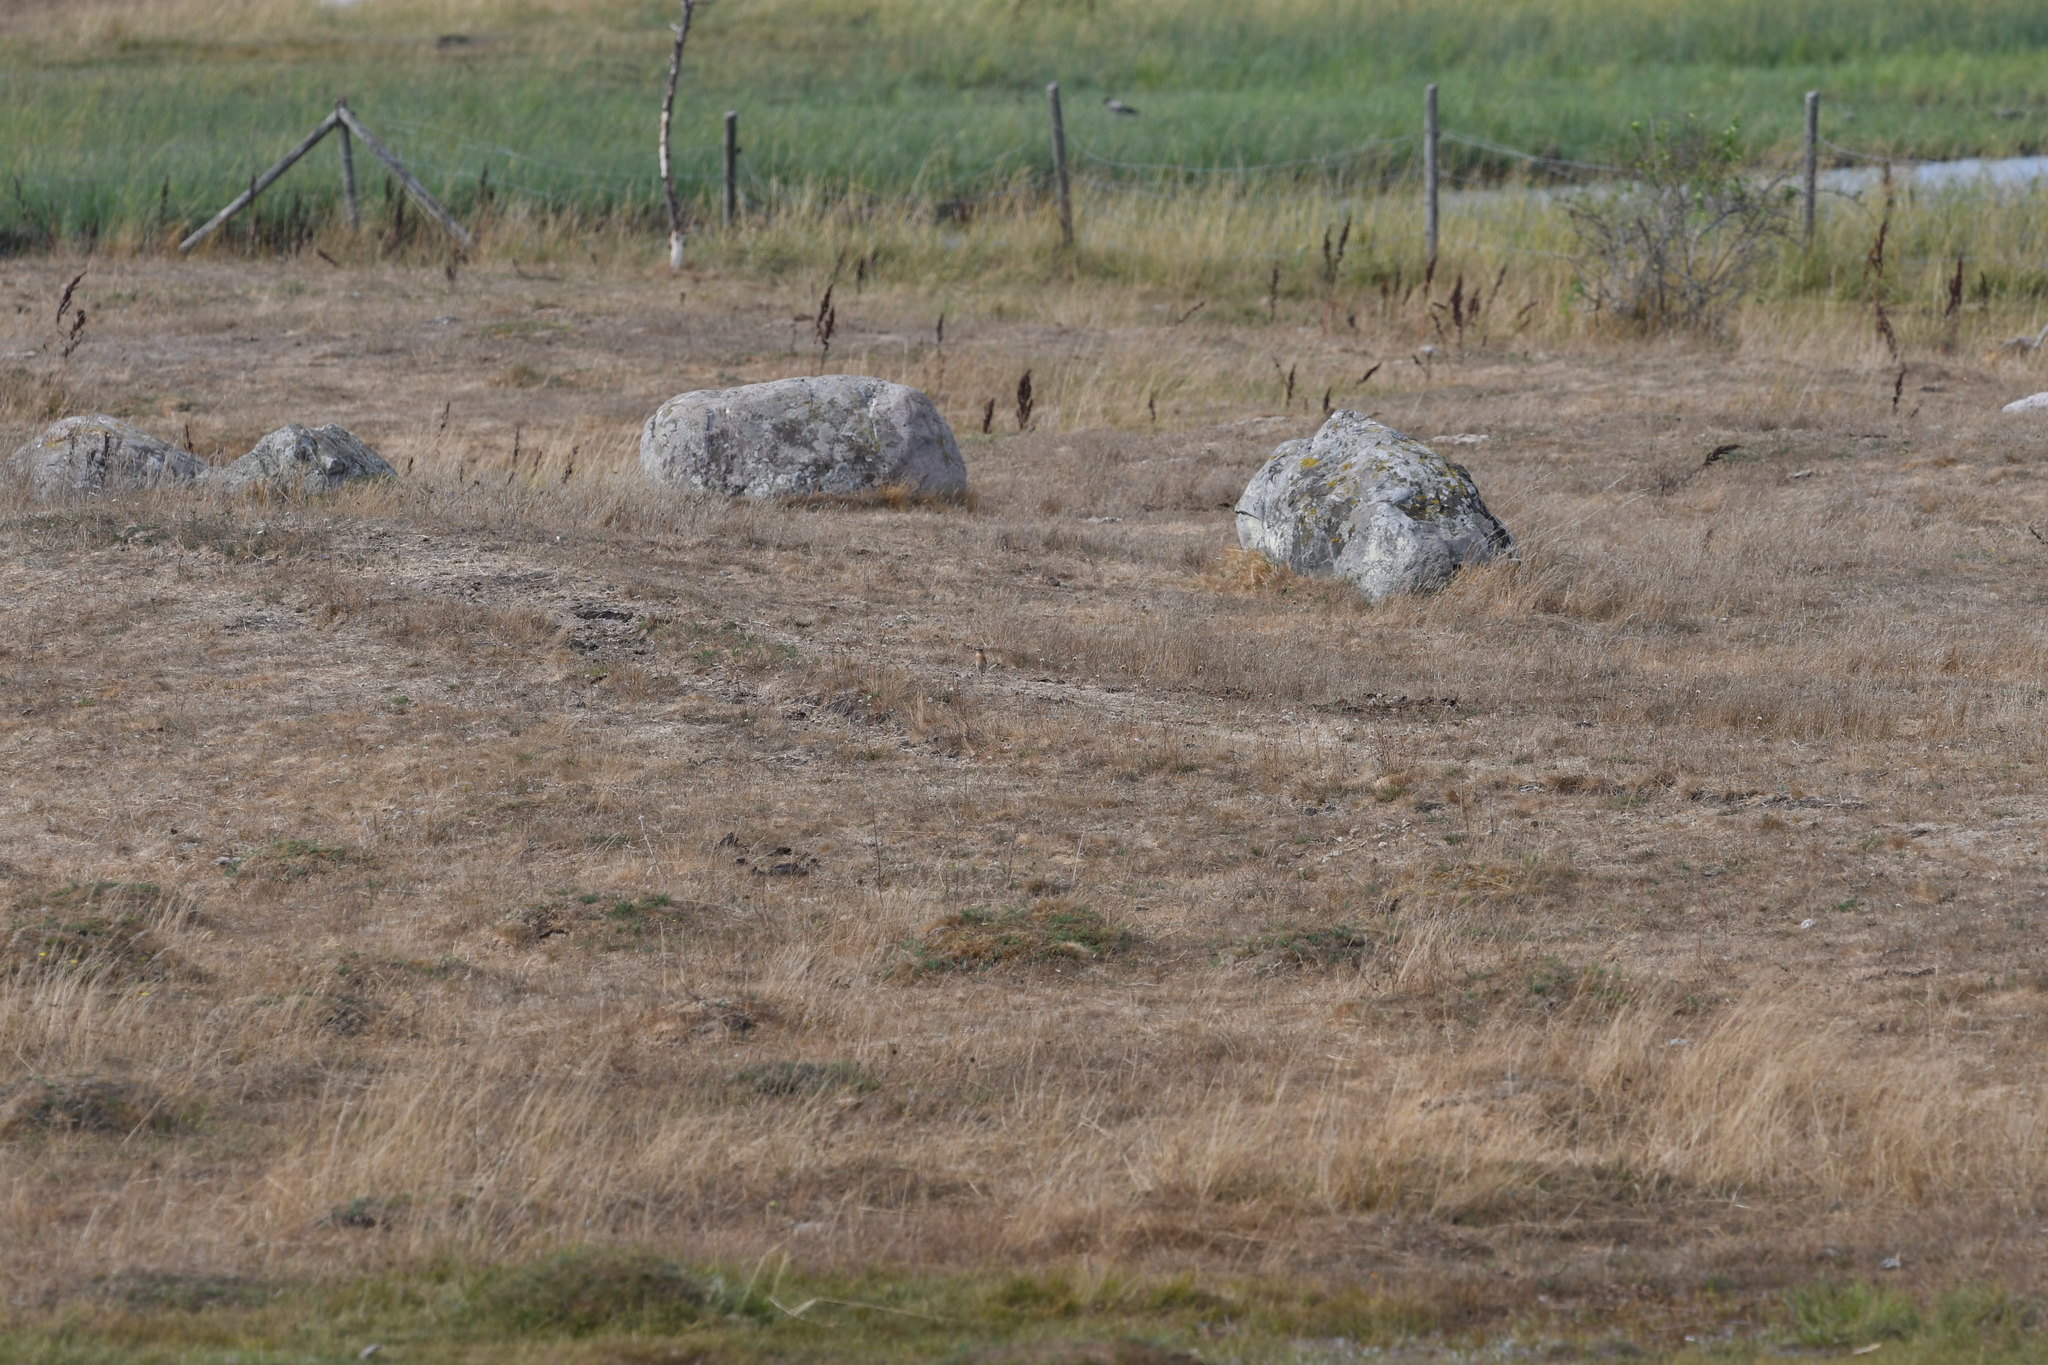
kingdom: Animalia
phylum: Chordata
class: Aves
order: Passeriformes
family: Muscicapidae
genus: Oenanthe
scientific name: Oenanthe oenanthe
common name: Northern wheatear
